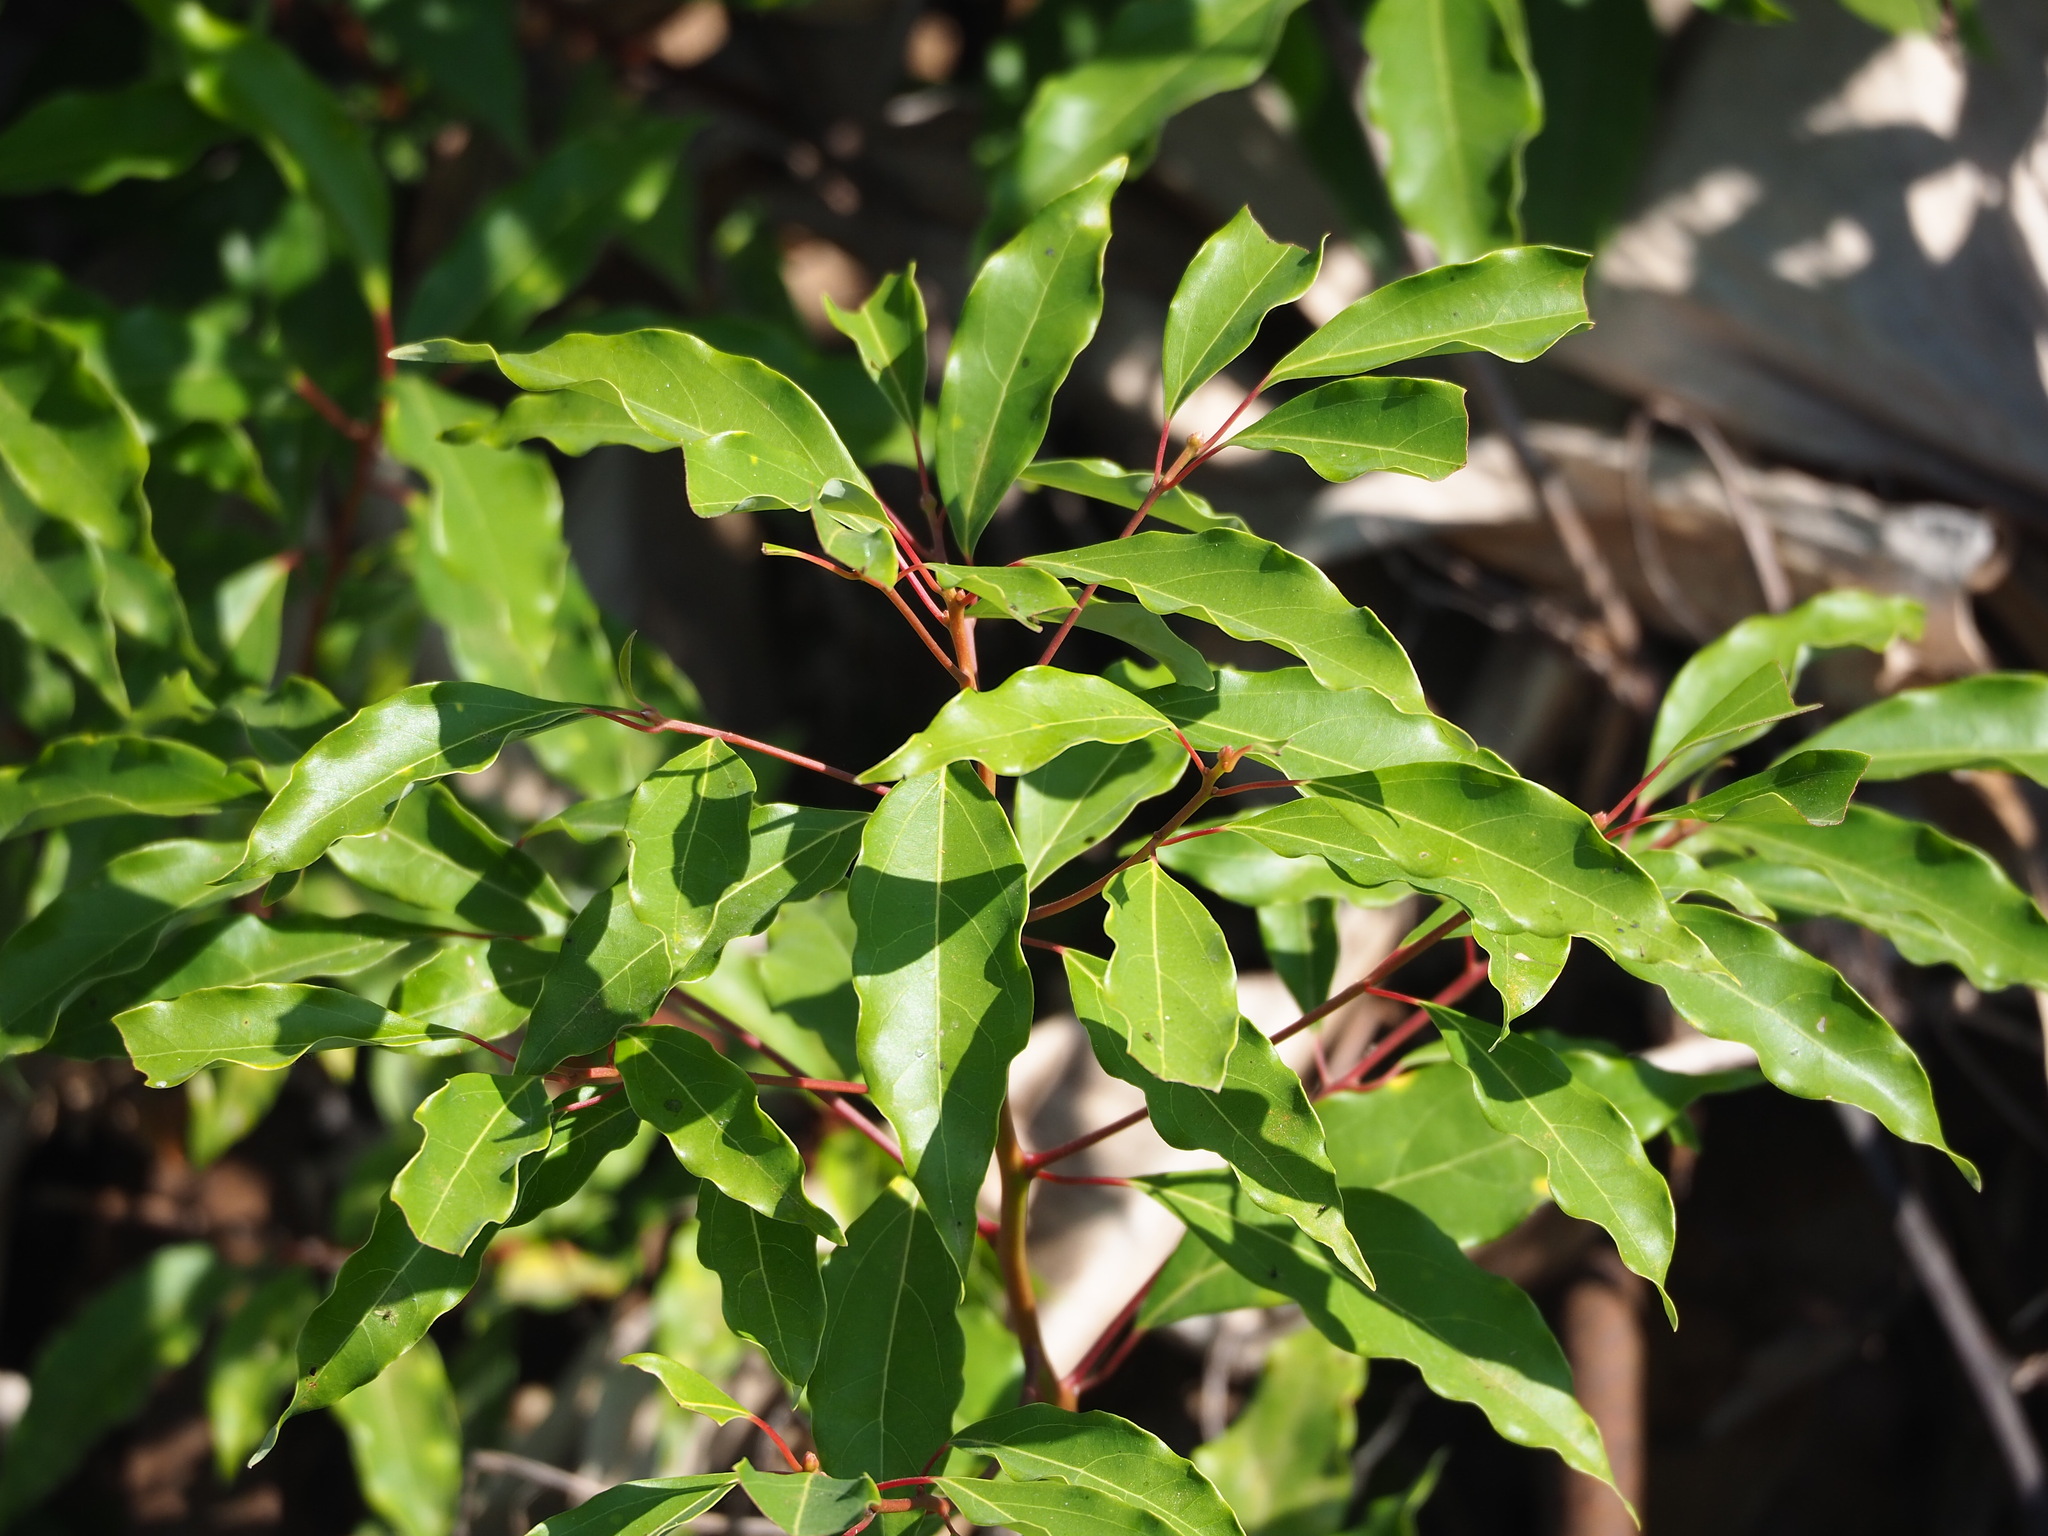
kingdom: Plantae
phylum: Tracheophyta
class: Magnoliopsida
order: Laurales
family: Lauraceae
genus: Cinnamomum
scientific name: Cinnamomum camphora
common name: Camphortree
